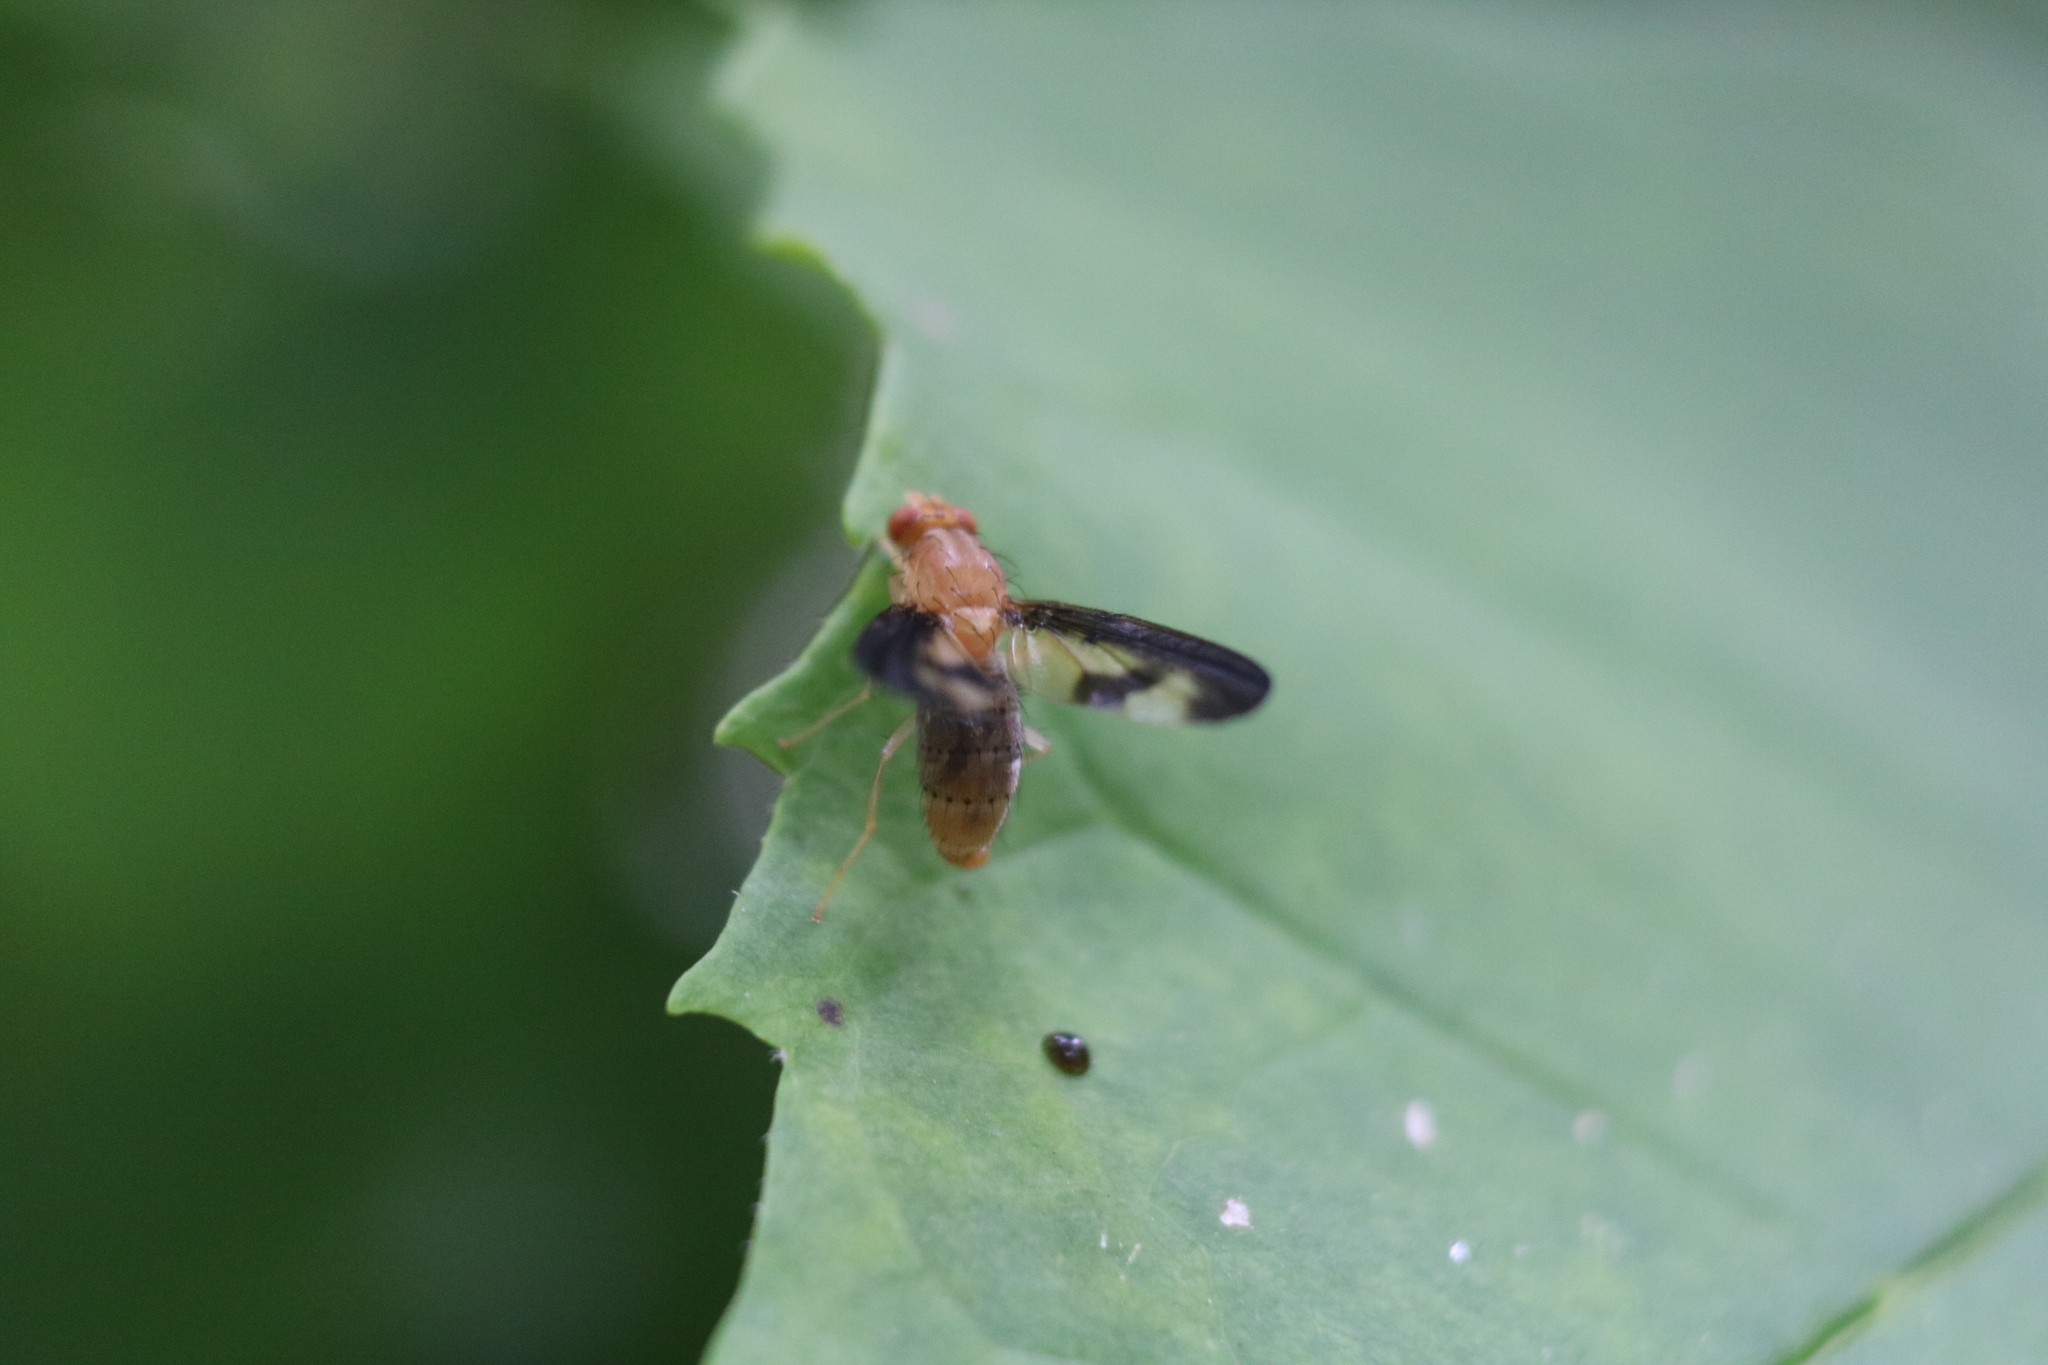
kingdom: Animalia
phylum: Arthropoda
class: Insecta
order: Diptera
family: Pallopteridae
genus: Toxonevra
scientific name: Toxonevra superba
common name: Antlered flutter fly
